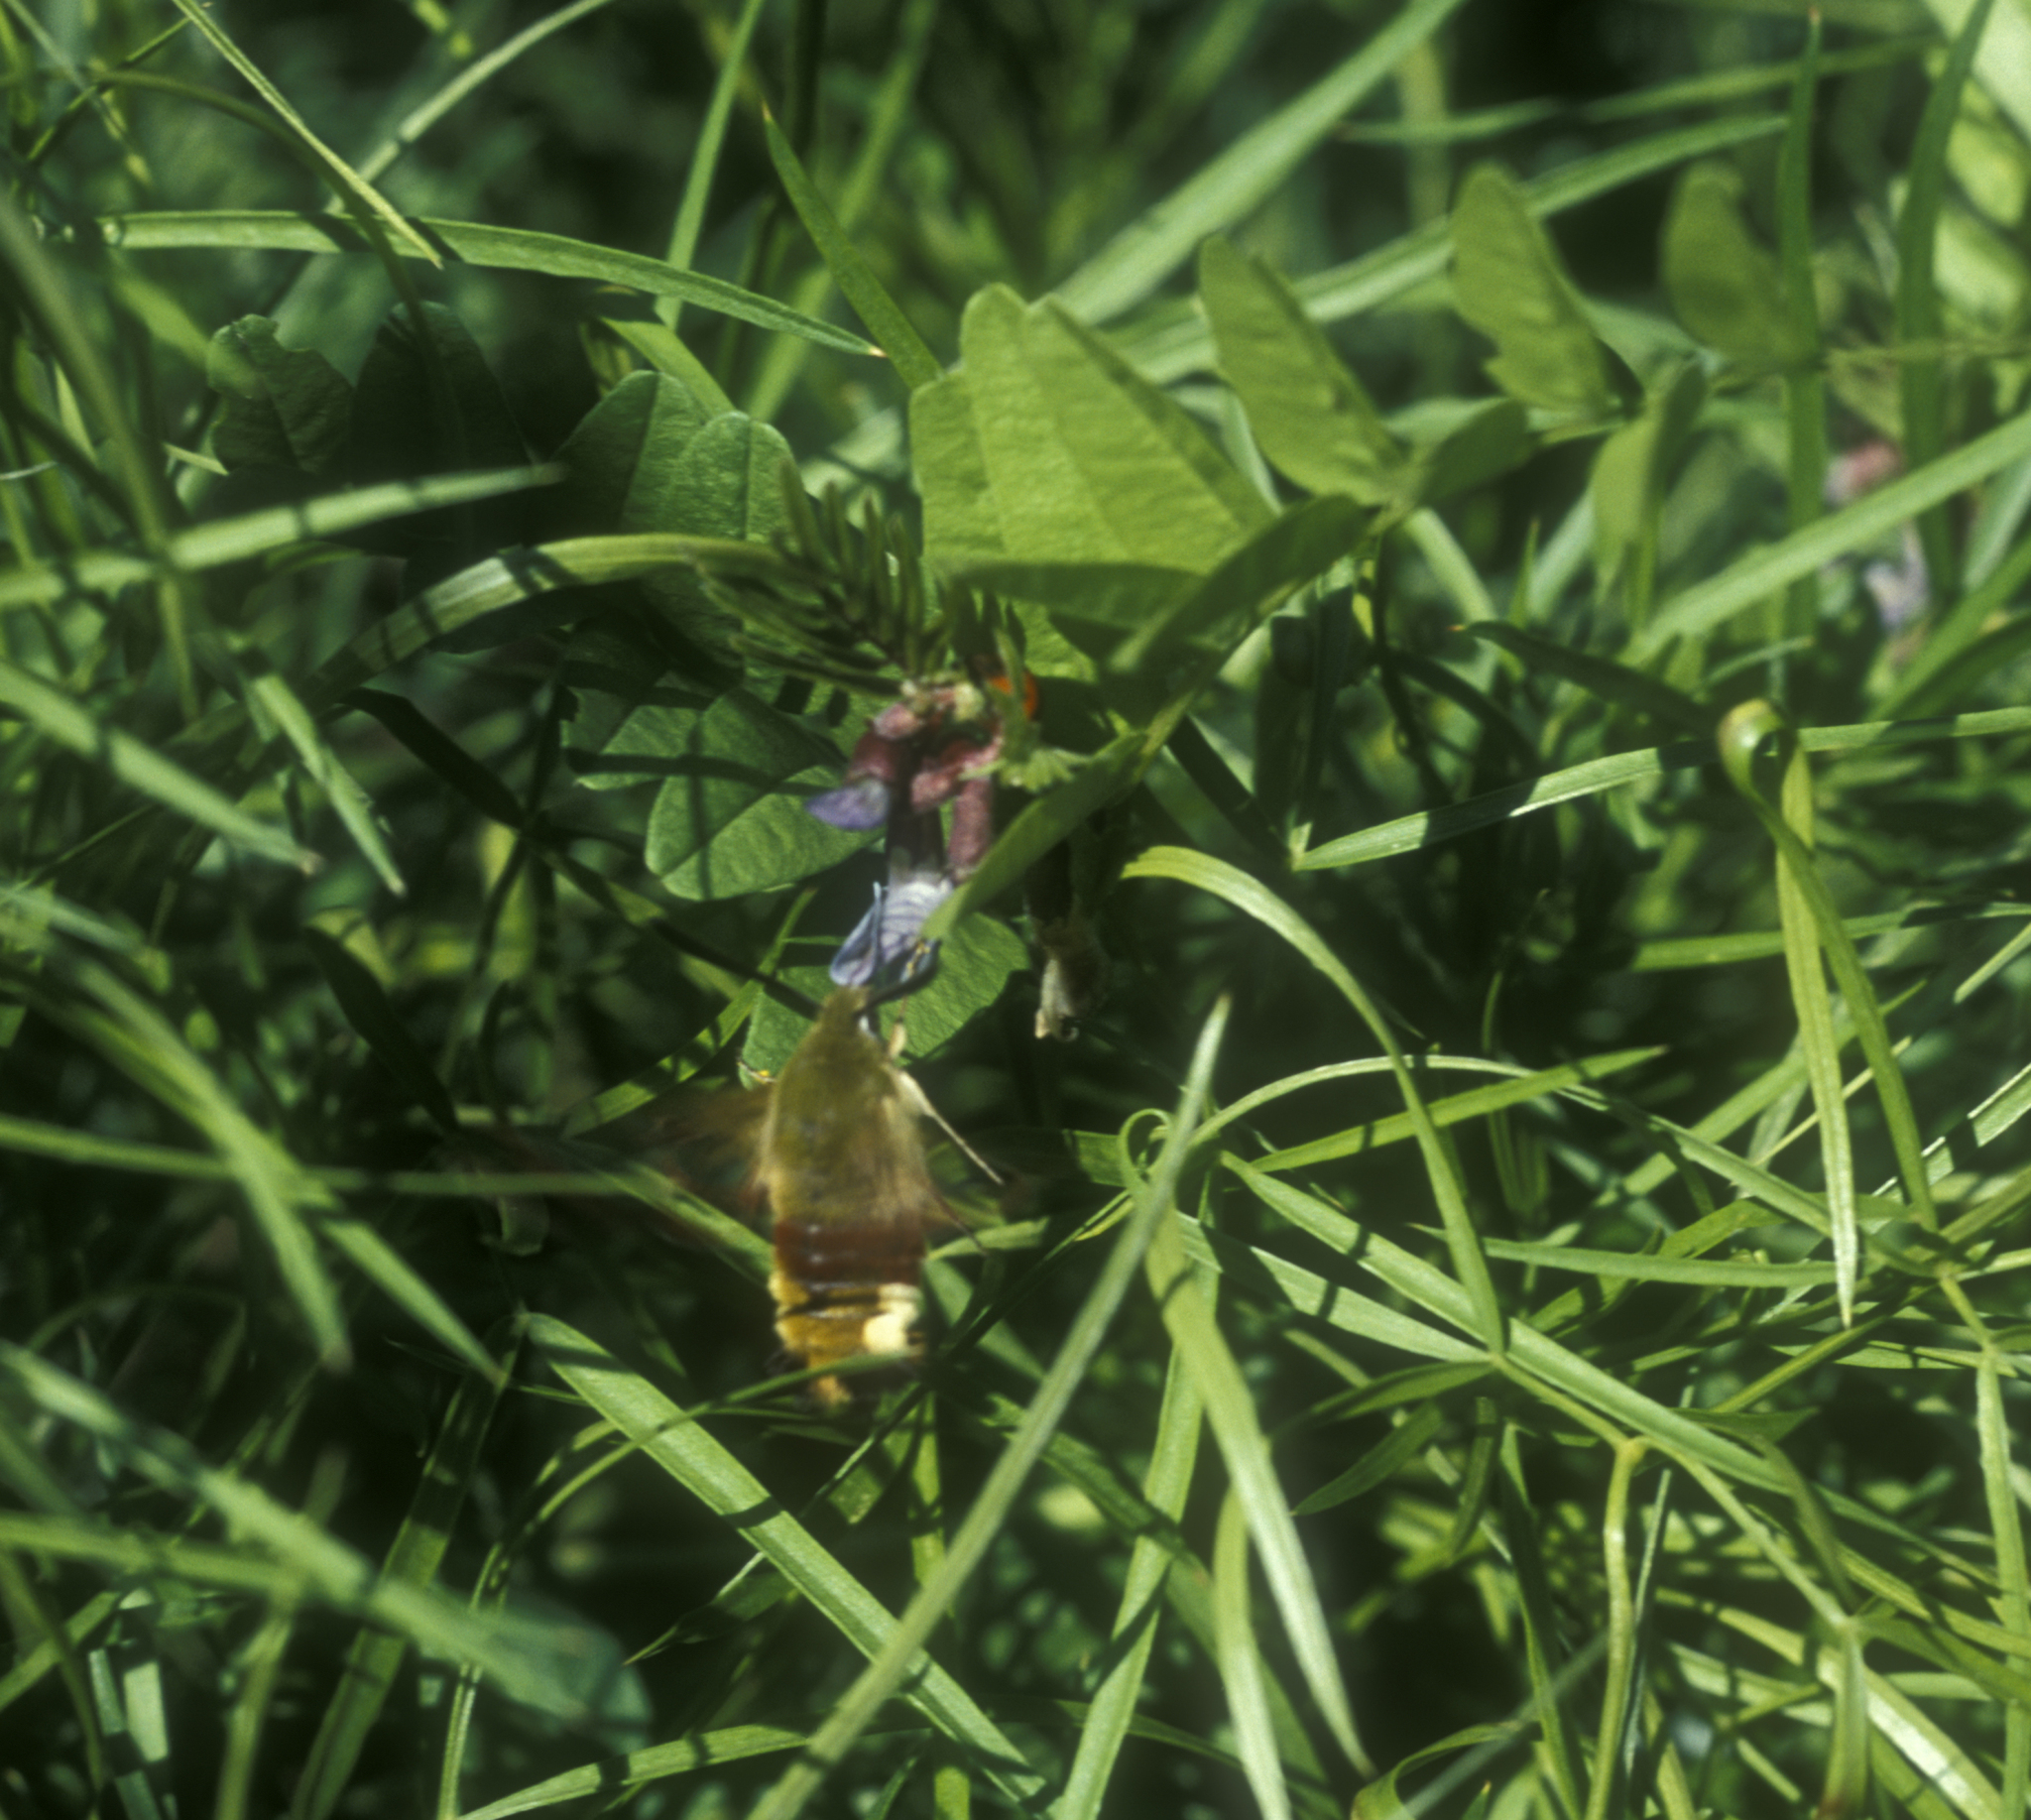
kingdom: Plantae
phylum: Tracheophyta
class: Magnoliopsida
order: Fabales
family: Fabaceae
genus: Vicia
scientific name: Vicia sepium
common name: Bush vetch
